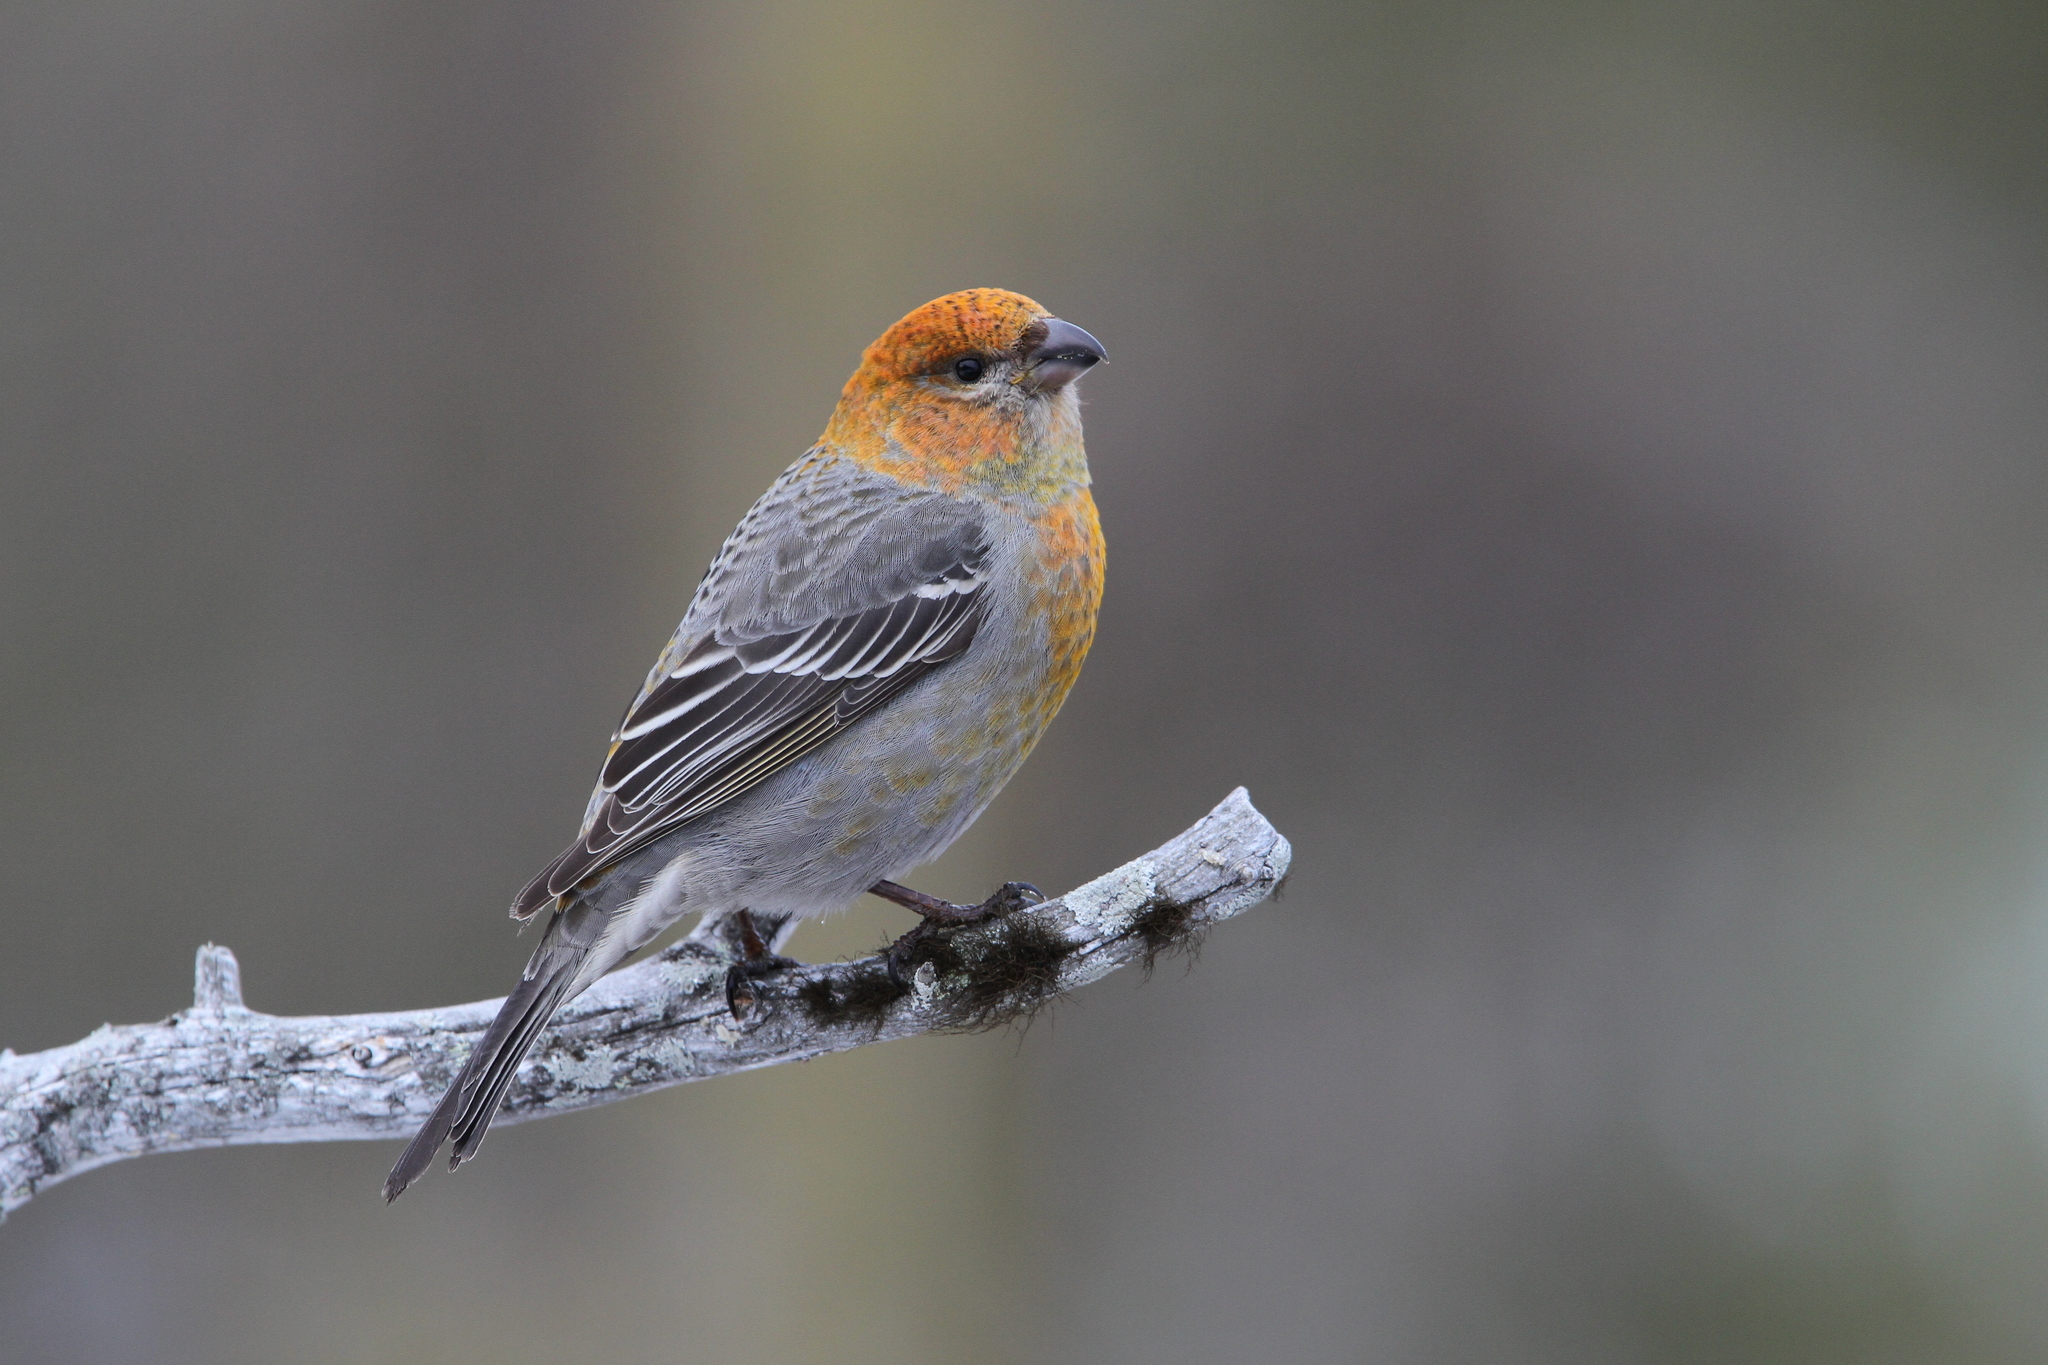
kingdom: Animalia
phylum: Chordata
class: Aves
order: Passeriformes
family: Fringillidae
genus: Pinicola
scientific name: Pinicola enucleator
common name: Pine grosbeak
